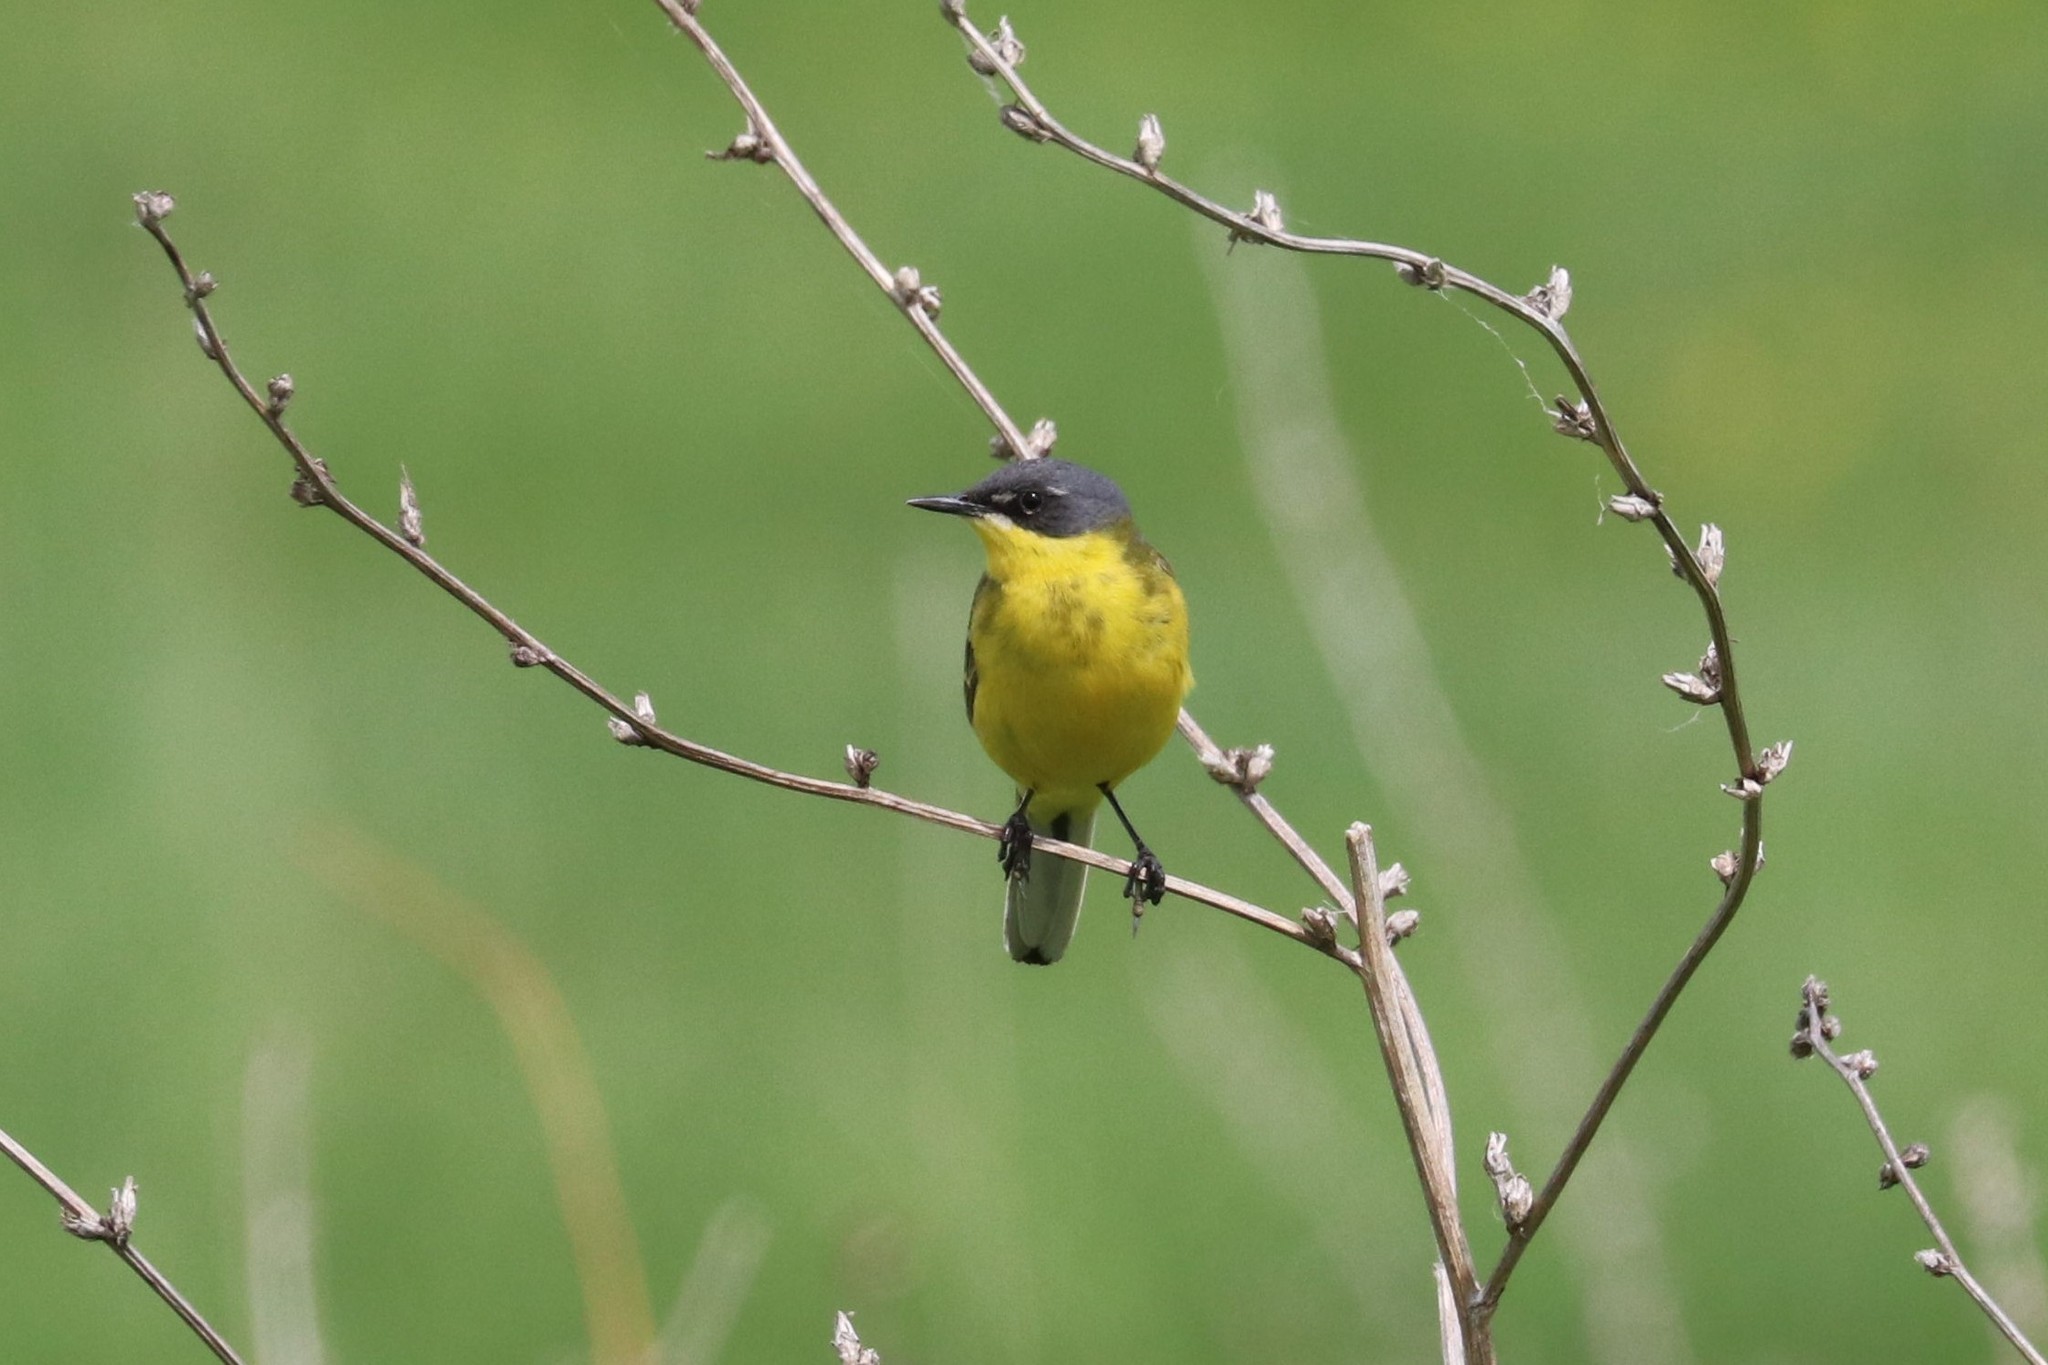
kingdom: Animalia
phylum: Chordata
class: Aves
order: Passeriformes
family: Motacillidae
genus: Motacilla
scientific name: Motacilla flava
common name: Western yellow wagtail
